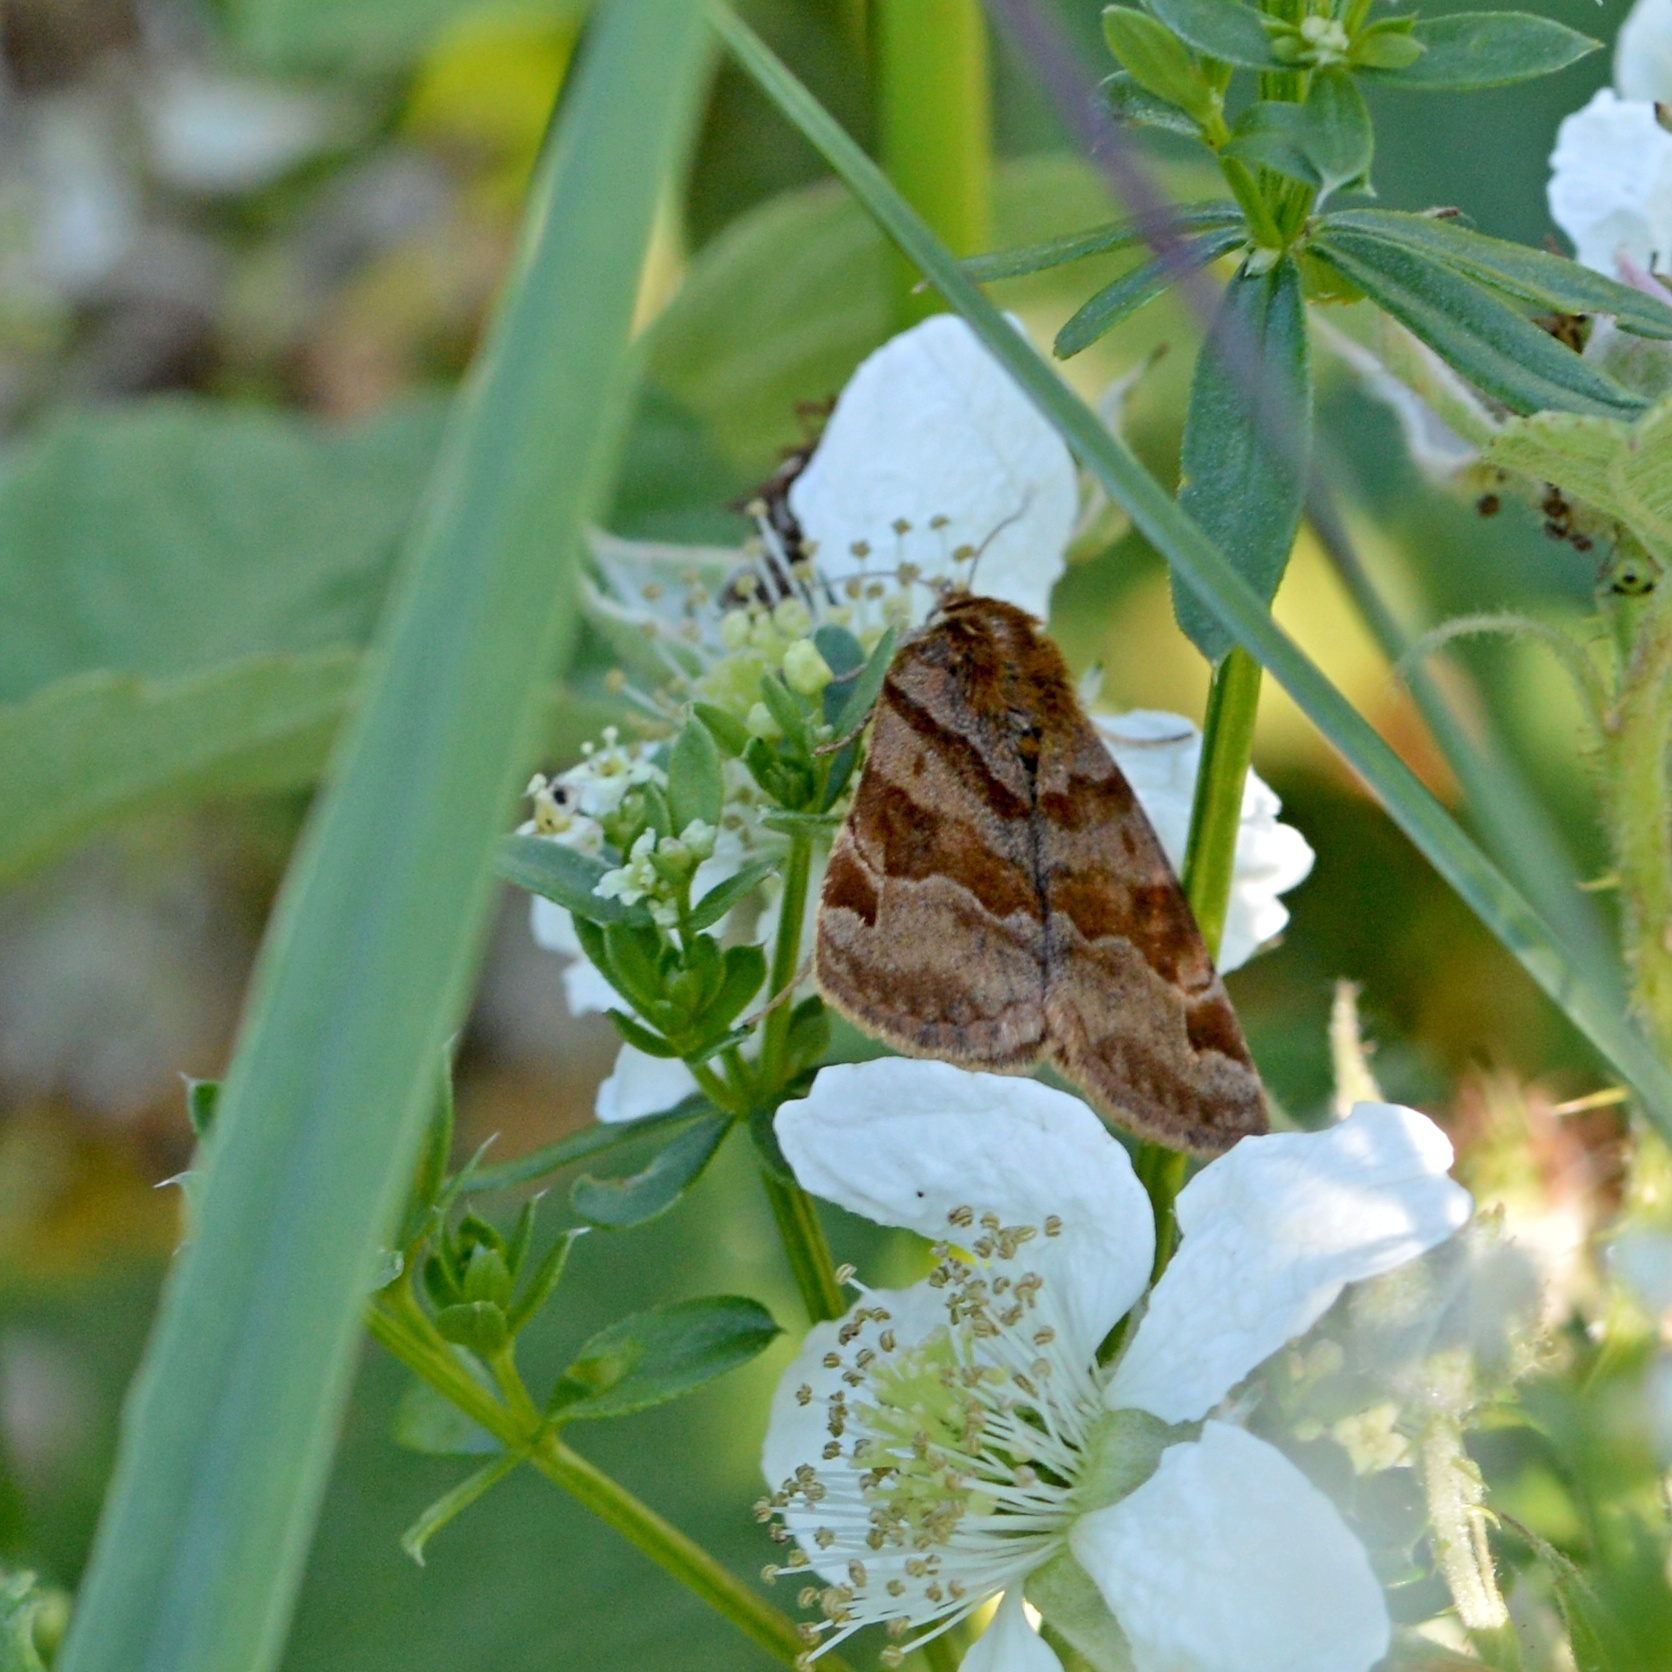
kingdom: Animalia
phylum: Arthropoda
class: Insecta
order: Lepidoptera
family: Erebidae
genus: Euclidia
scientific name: Euclidia glyphica
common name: Burnet companion
